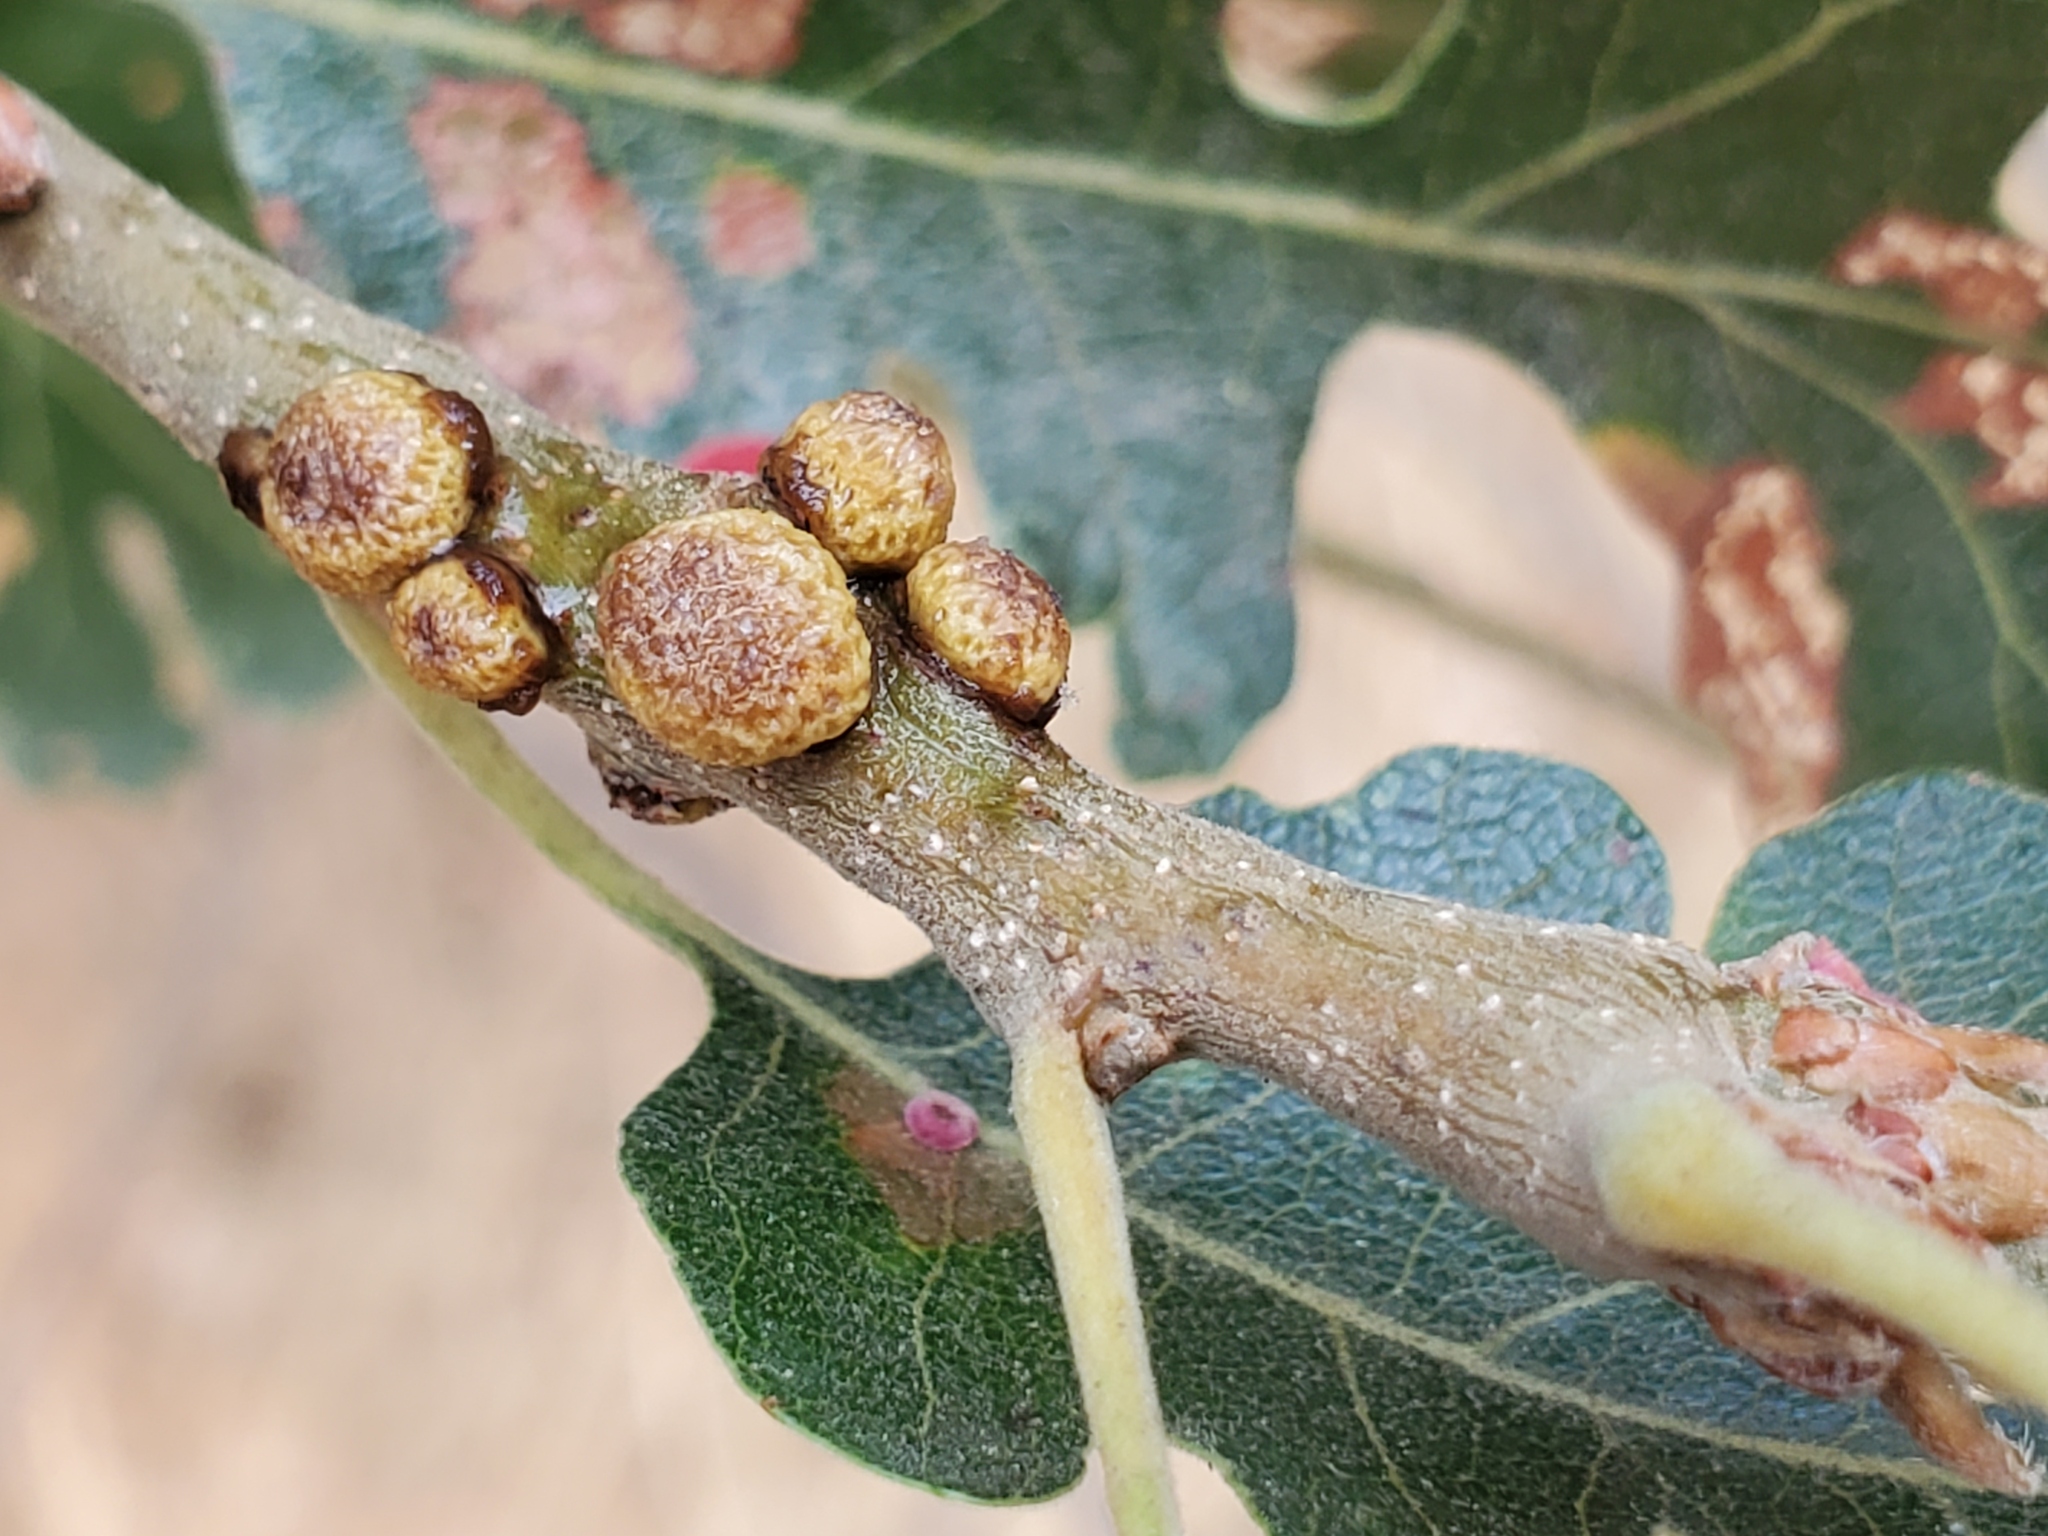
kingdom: Animalia
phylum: Arthropoda
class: Insecta
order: Hymenoptera
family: Cynipidae
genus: Disholcaspis
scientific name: Disholcaspis
